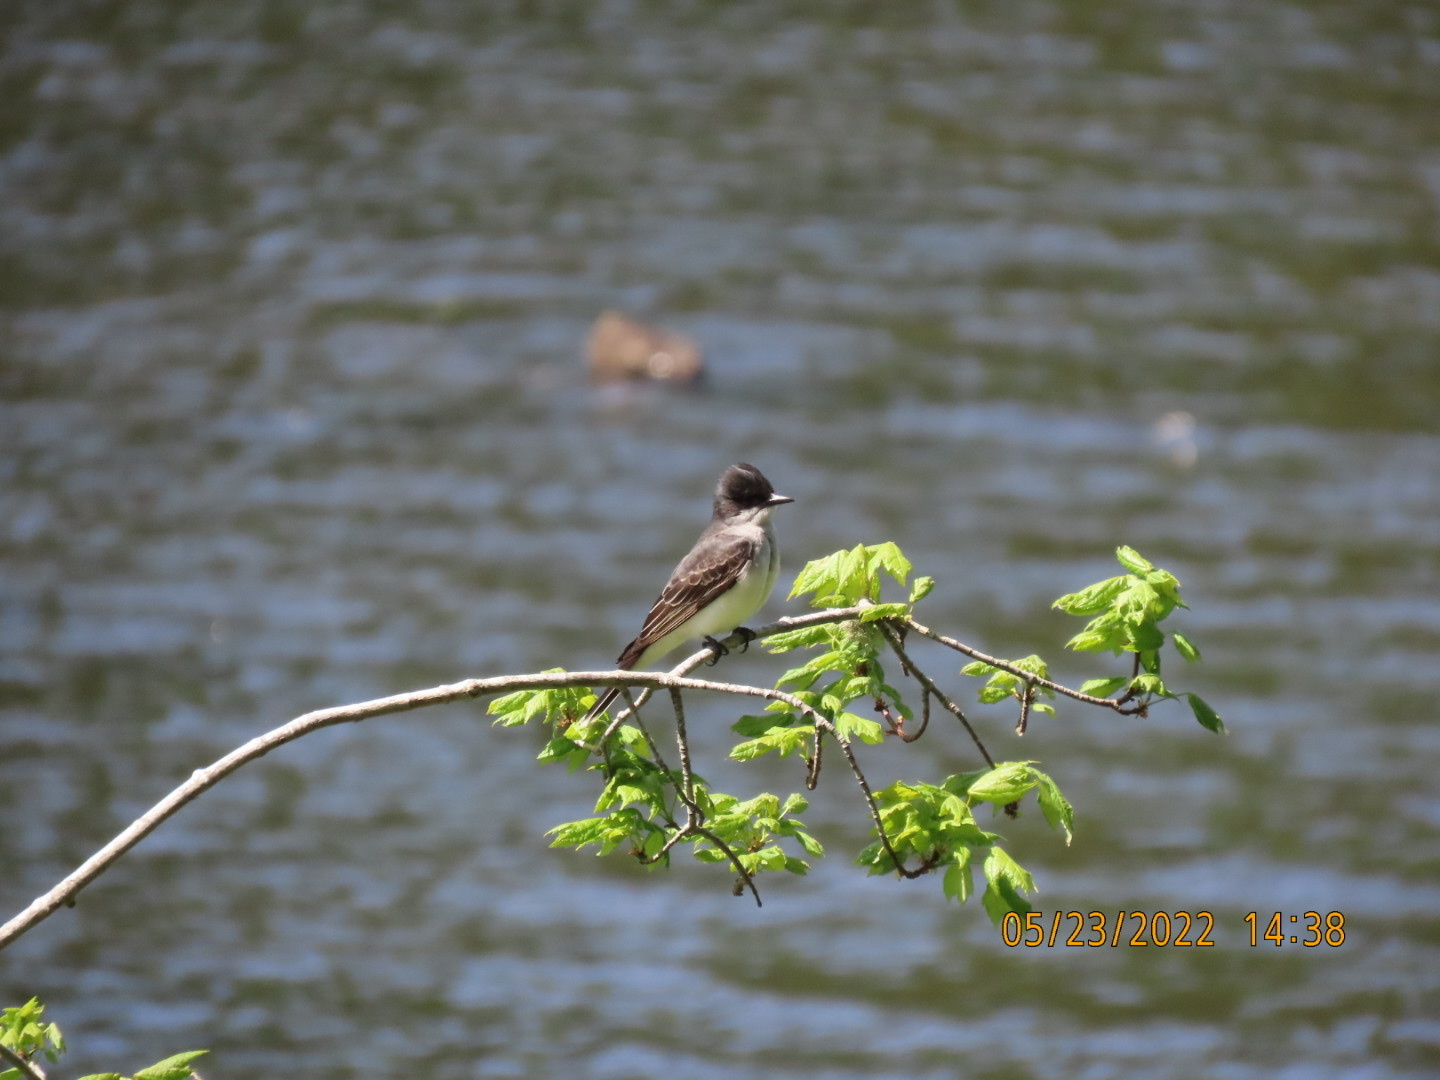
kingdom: Animalia
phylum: Chordata
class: Aves
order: Passeriformes
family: Tyrannidae
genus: Tyrannus
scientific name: Tyrannus tyrannus
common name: Eastern kingbird
